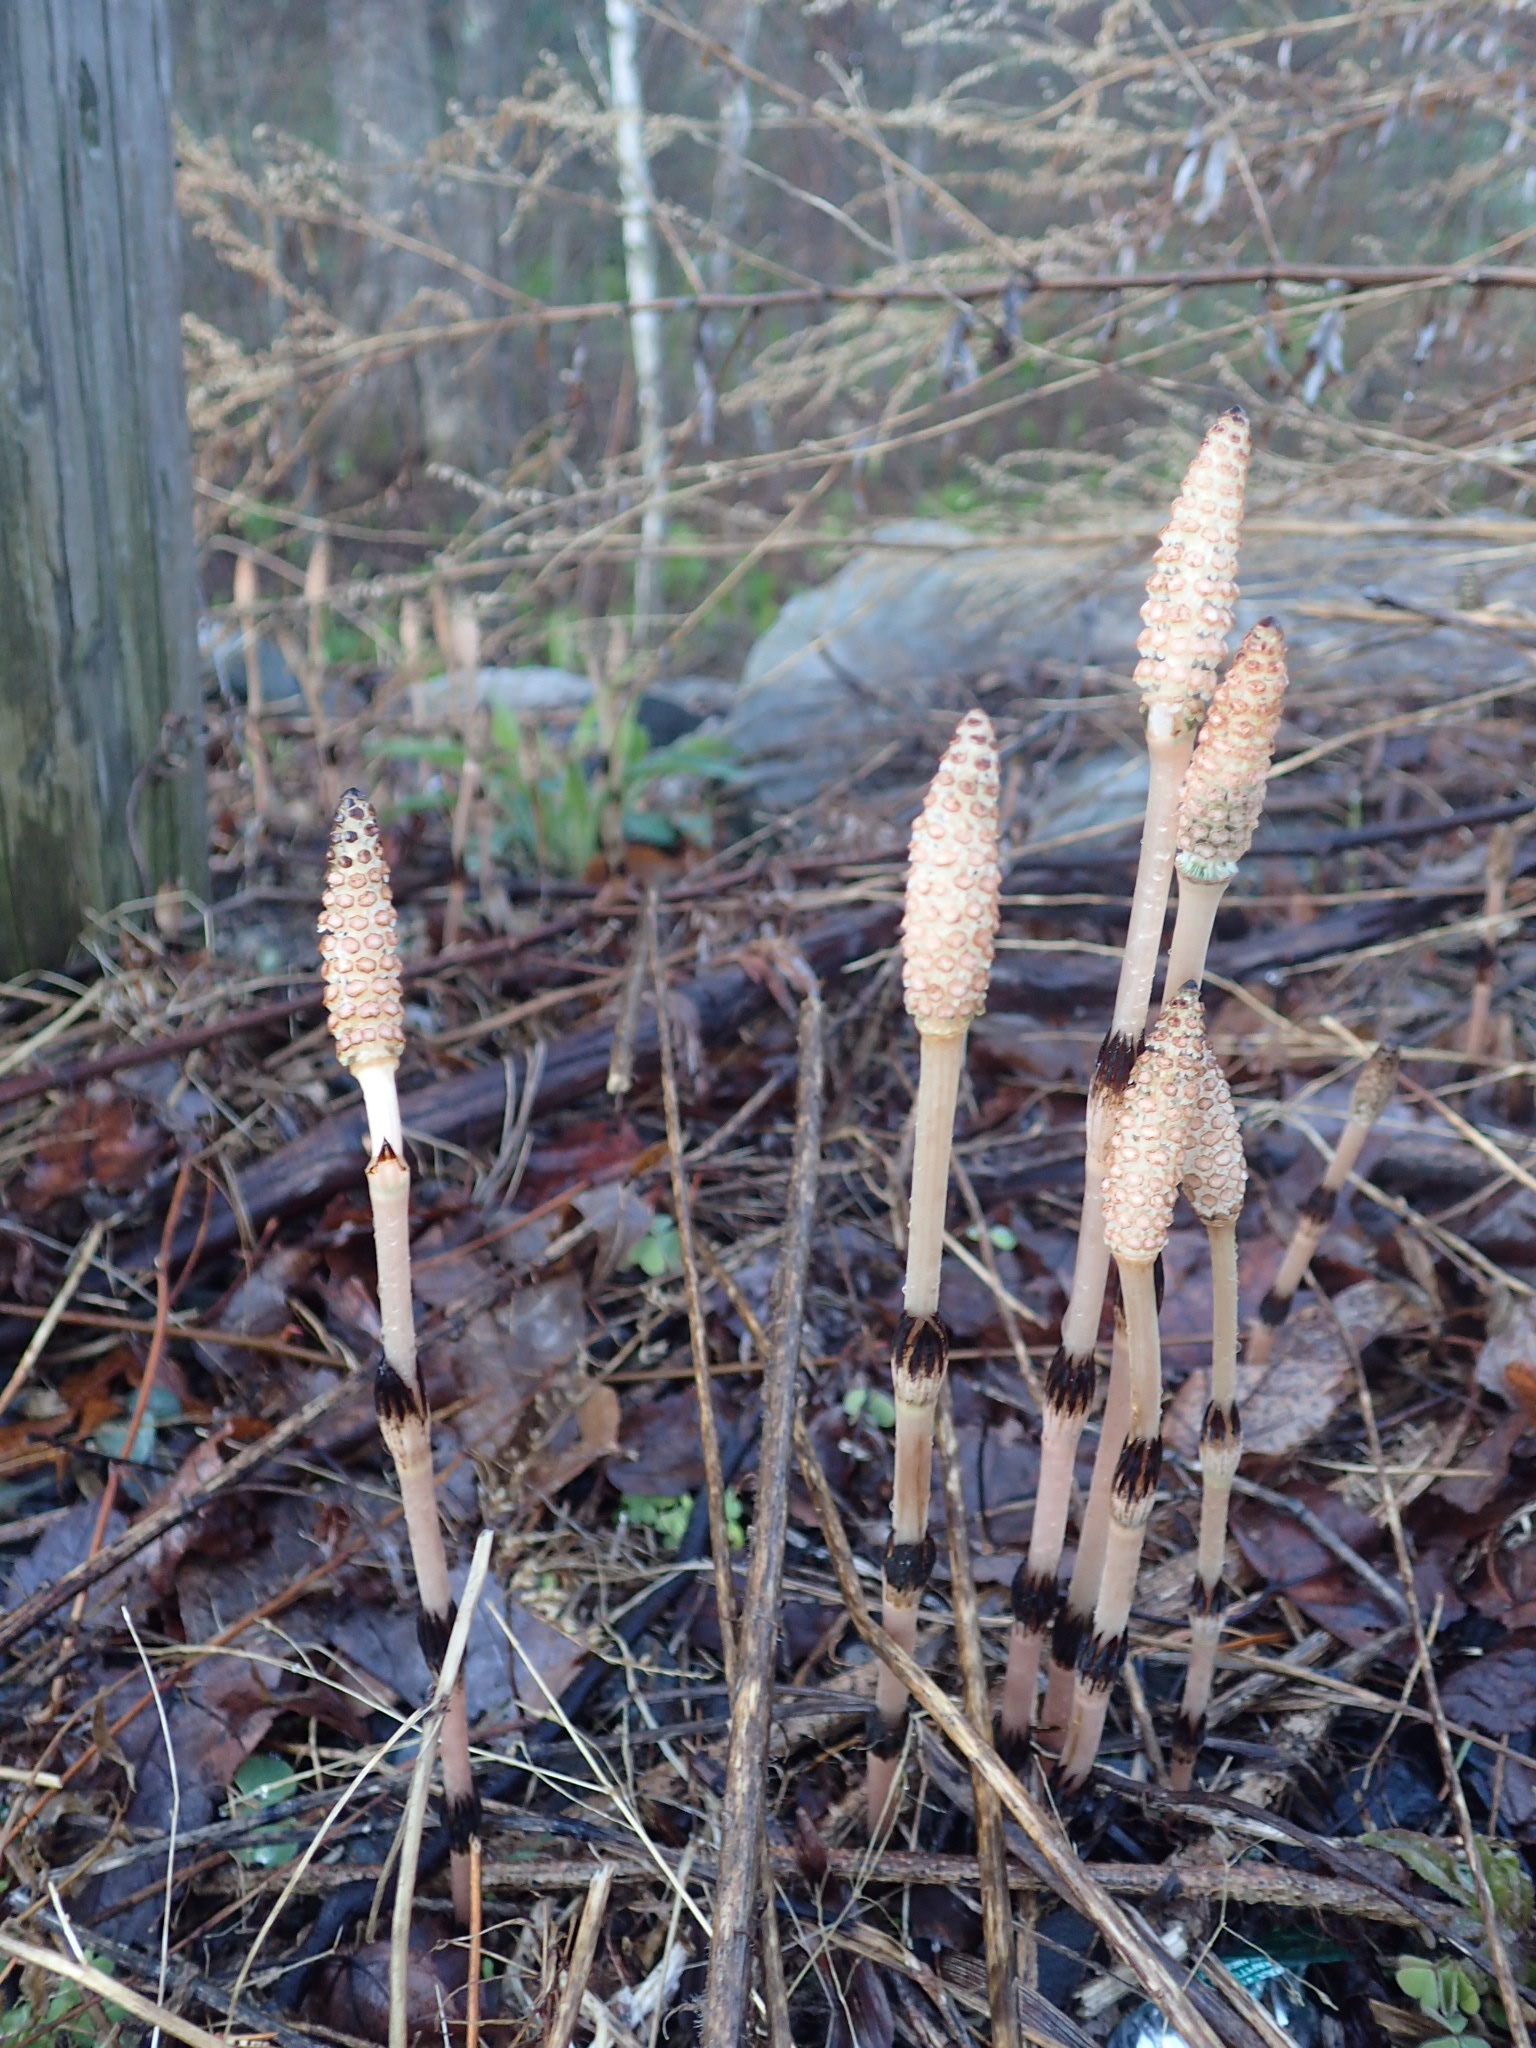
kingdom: Plantae
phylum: Tracheophyta
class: Polypodiopsida
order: Equisetales
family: Equisetaceae
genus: Equisetum
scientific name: Equisetum arvense
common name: Field horsetail
